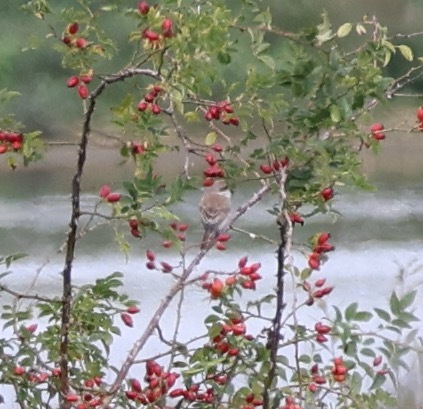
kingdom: Animalia
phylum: Chordata
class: Aves
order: Passeriformes
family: Laniidae
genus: Lanius
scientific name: Lanius collurio
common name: Red-backed shrike
